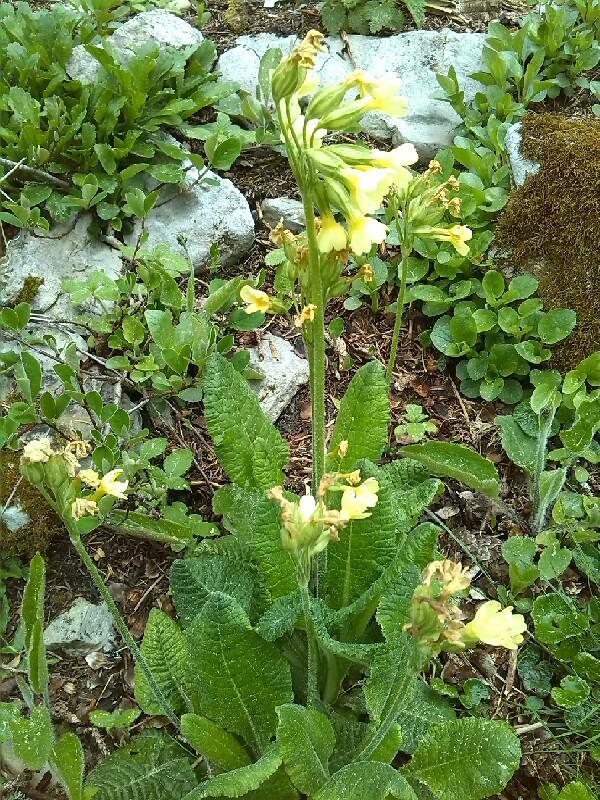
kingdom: Plantae
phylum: Tracheophyta
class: Magnoliopsida
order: Ericales
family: Primulaceae
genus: Primula
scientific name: Primula elatior
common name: Oxlip
